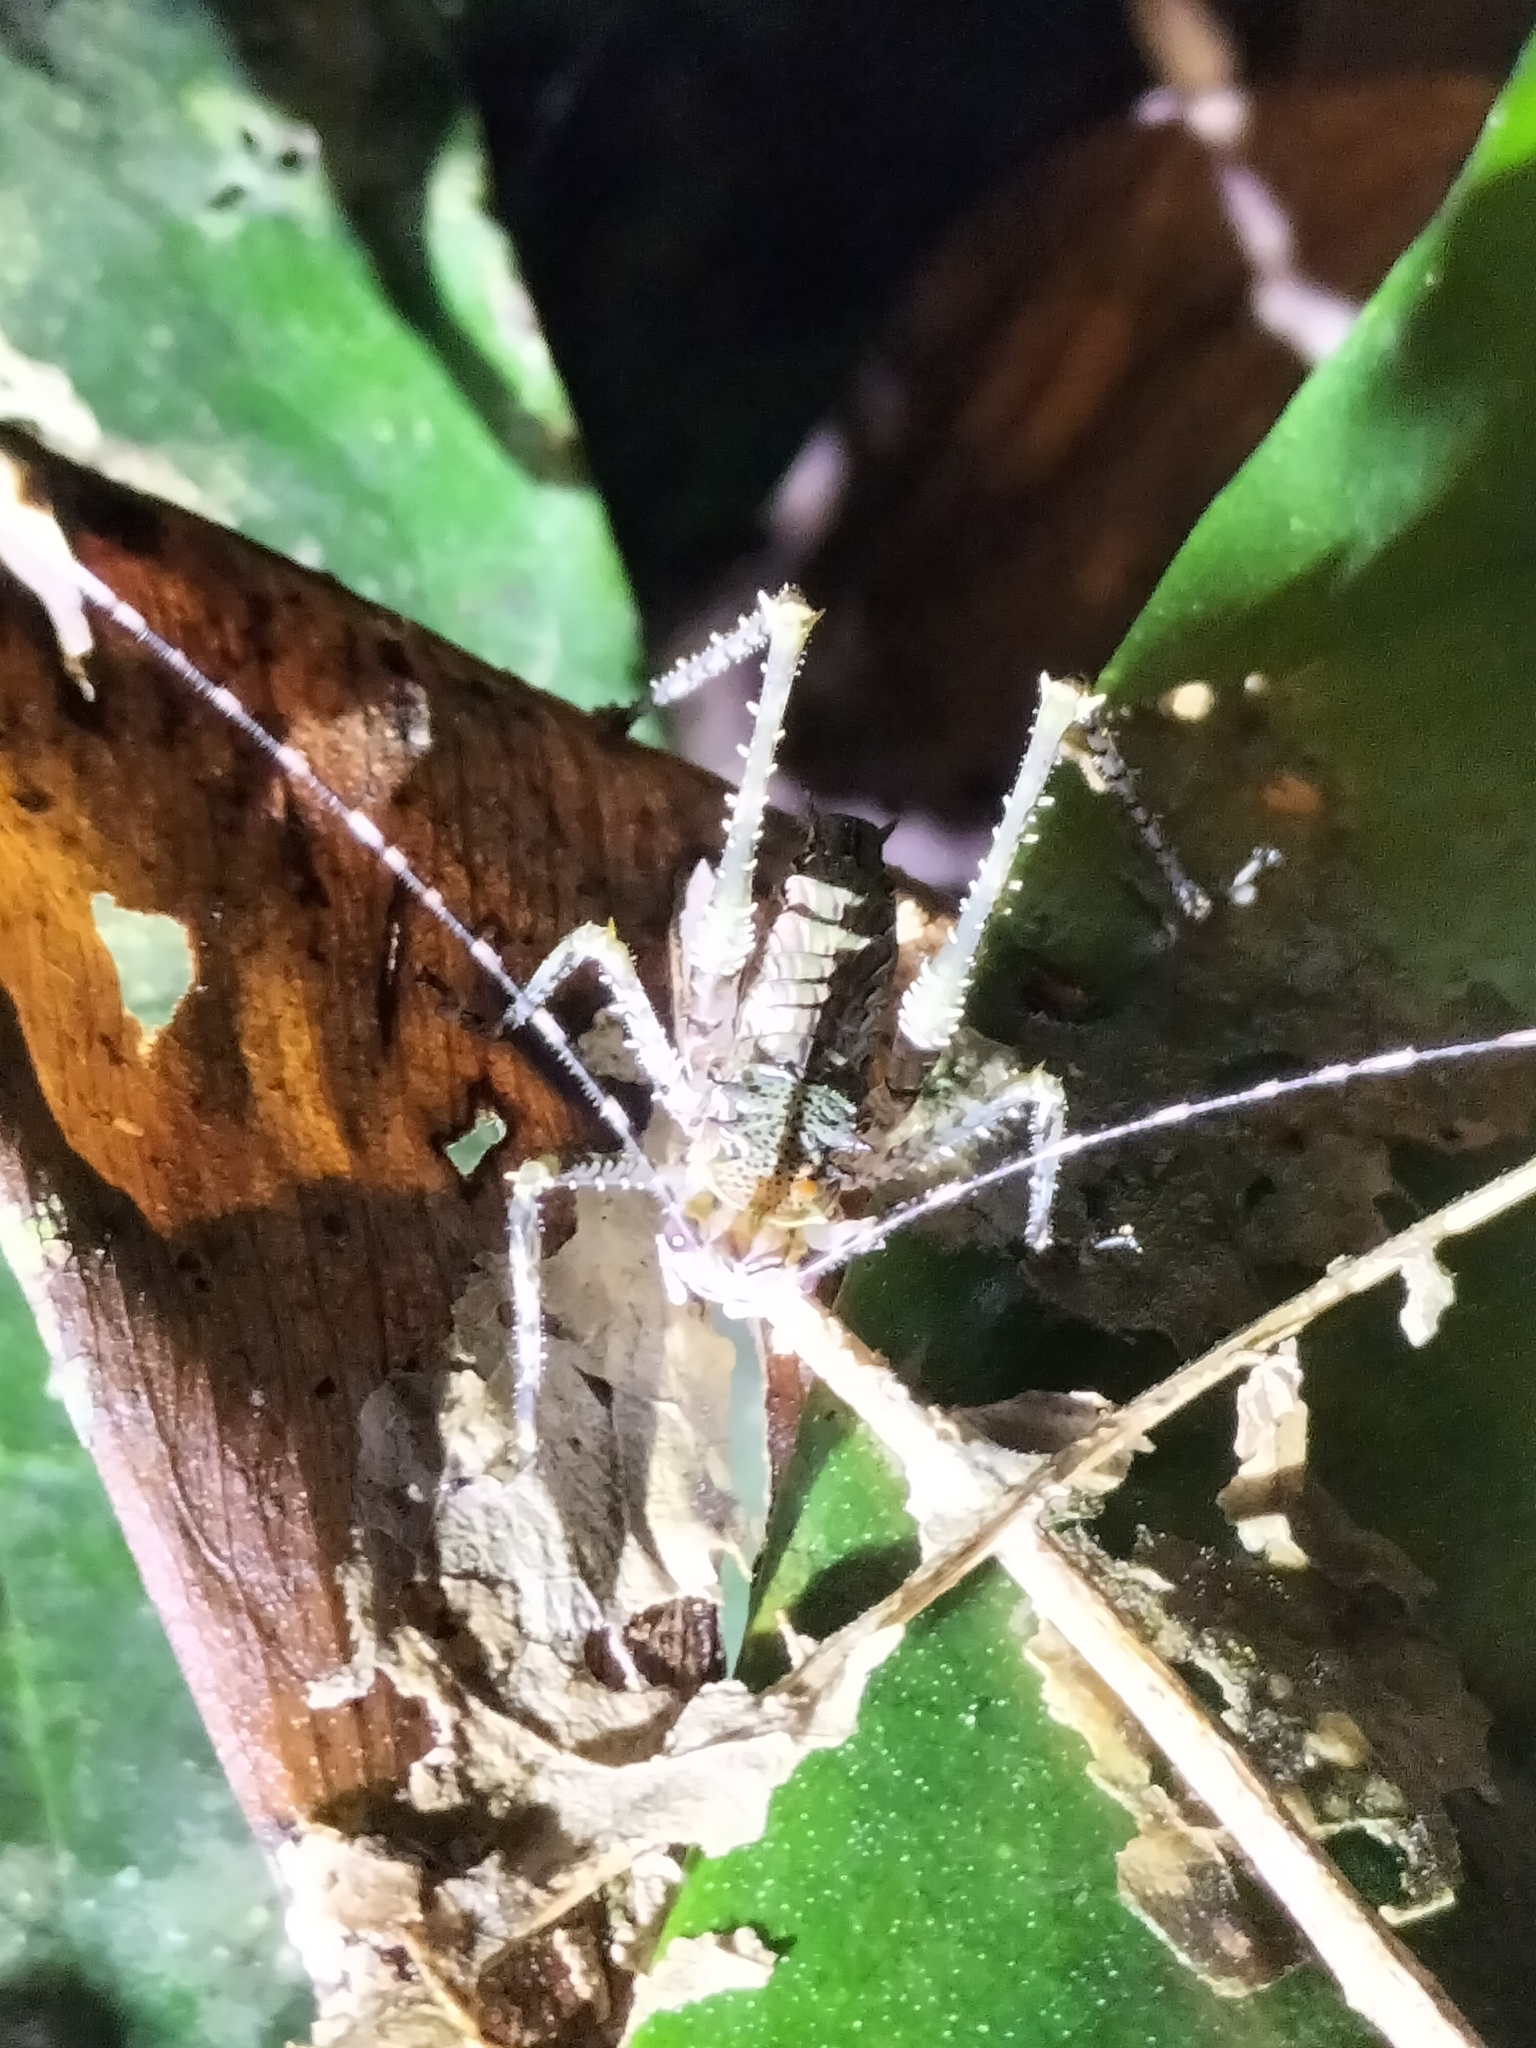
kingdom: Animalia
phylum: Arthropoda
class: Insecta
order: Orthoptera
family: Tettigoniidae
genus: Phricta
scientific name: Phricta spinosa
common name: Giant spiny forest katydid
